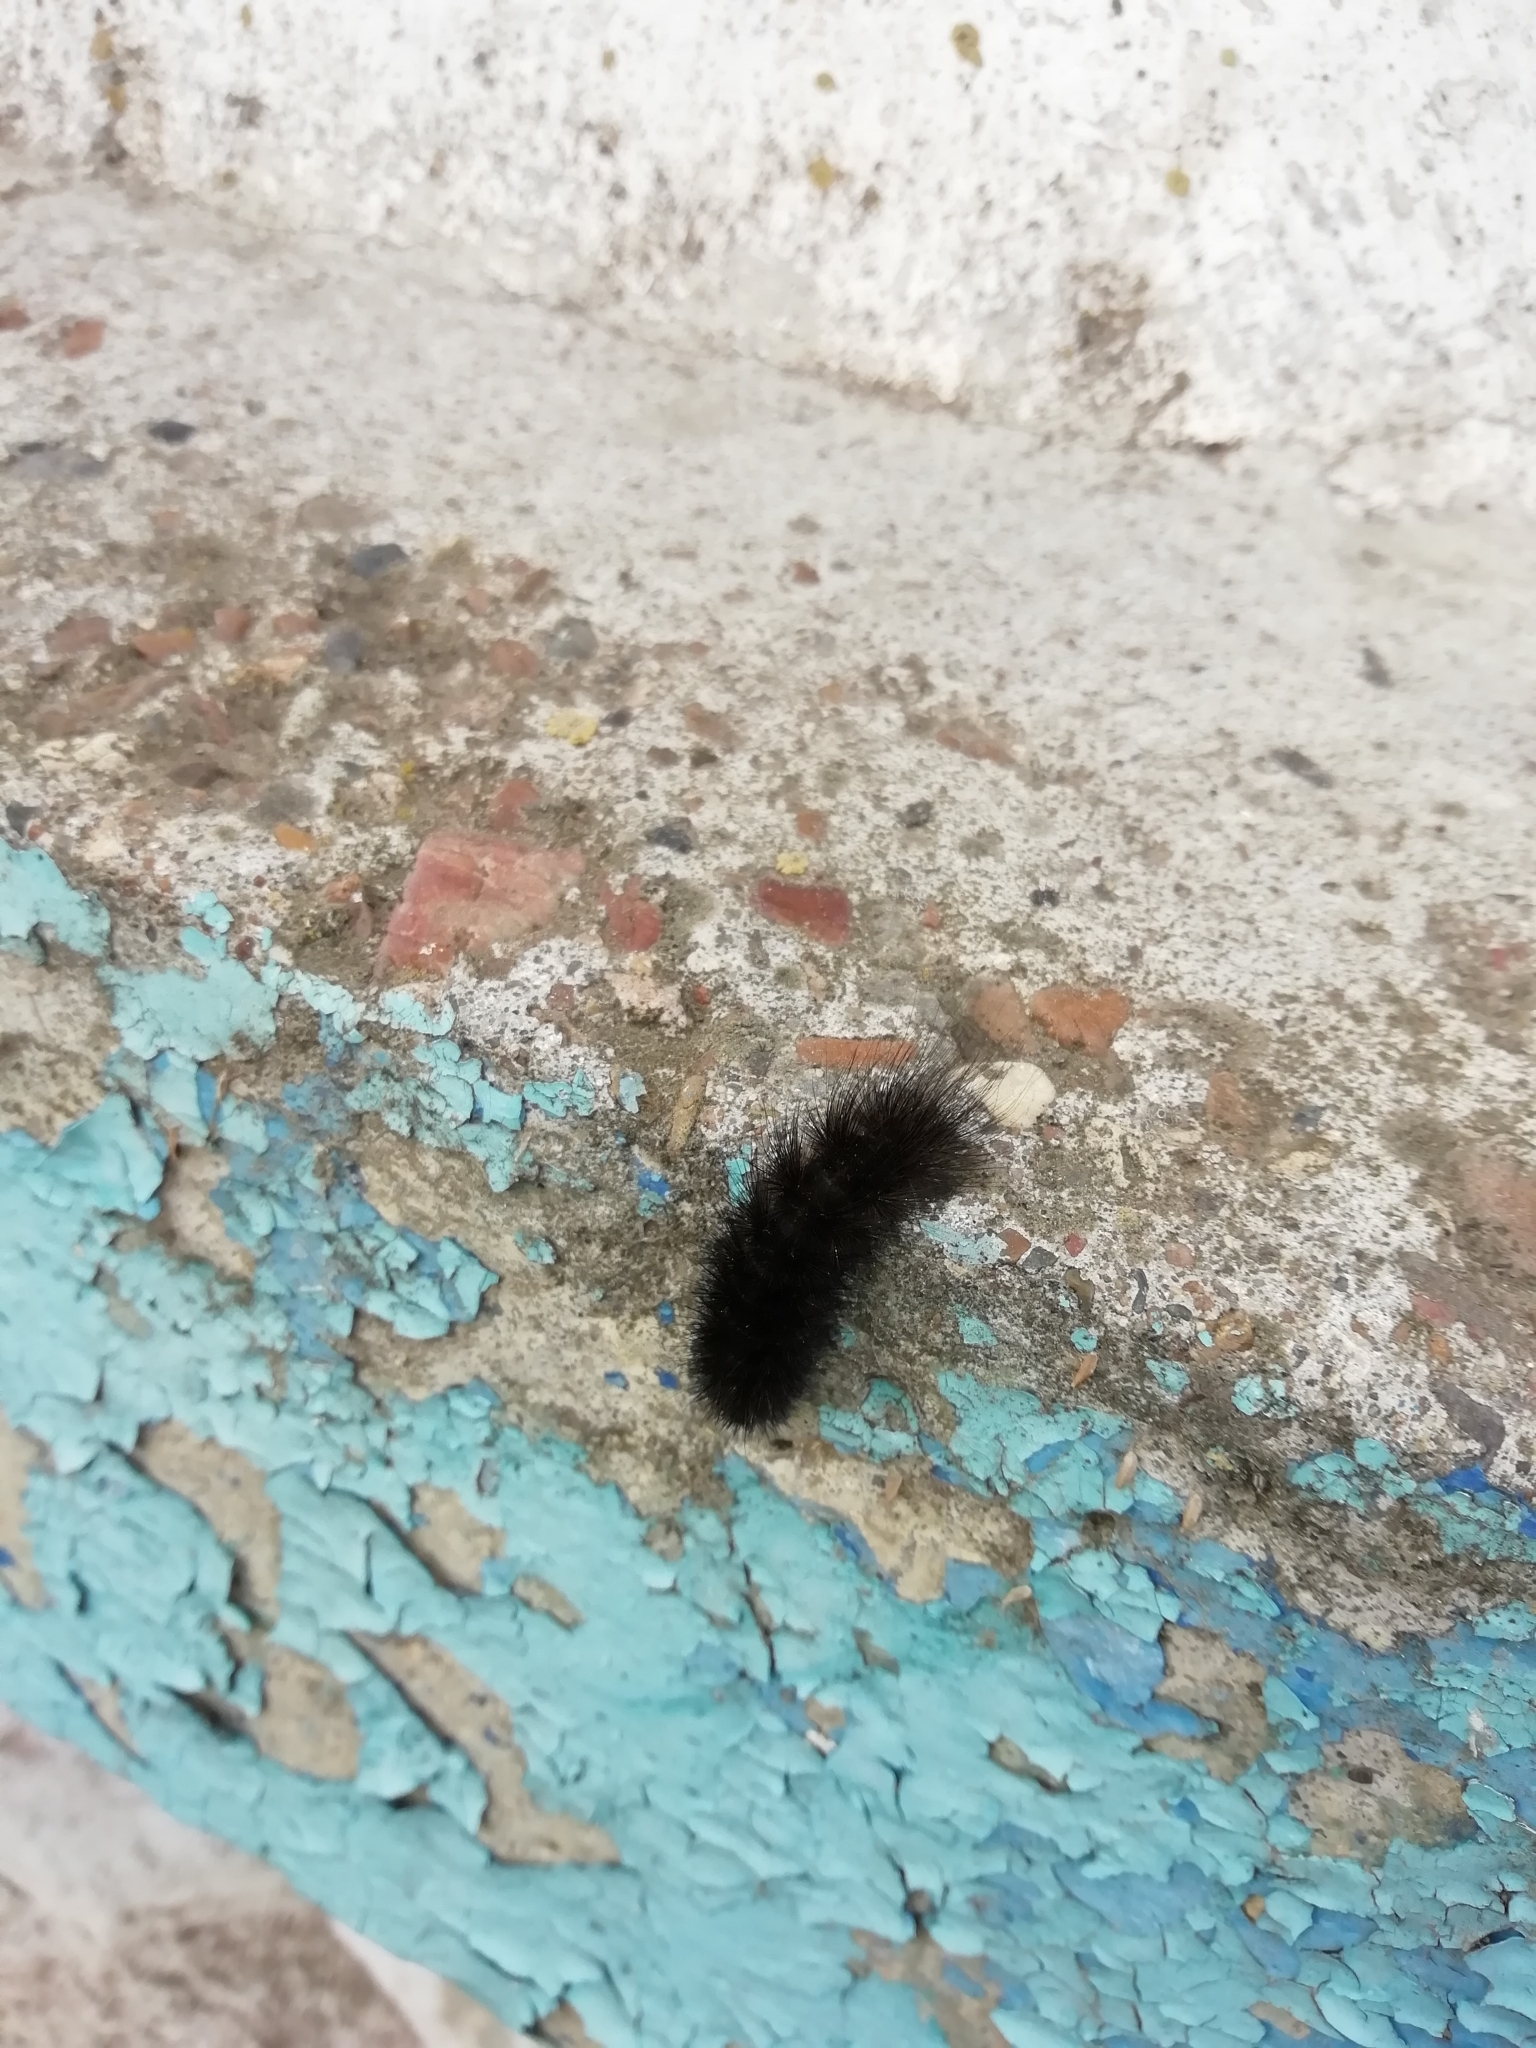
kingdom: Animalia
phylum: Arthropoda
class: Insecta
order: Lepidoptera
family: Erebidae
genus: Phragmatobia
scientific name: Phragmatobia fuliginosa
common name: Ruby tiger
